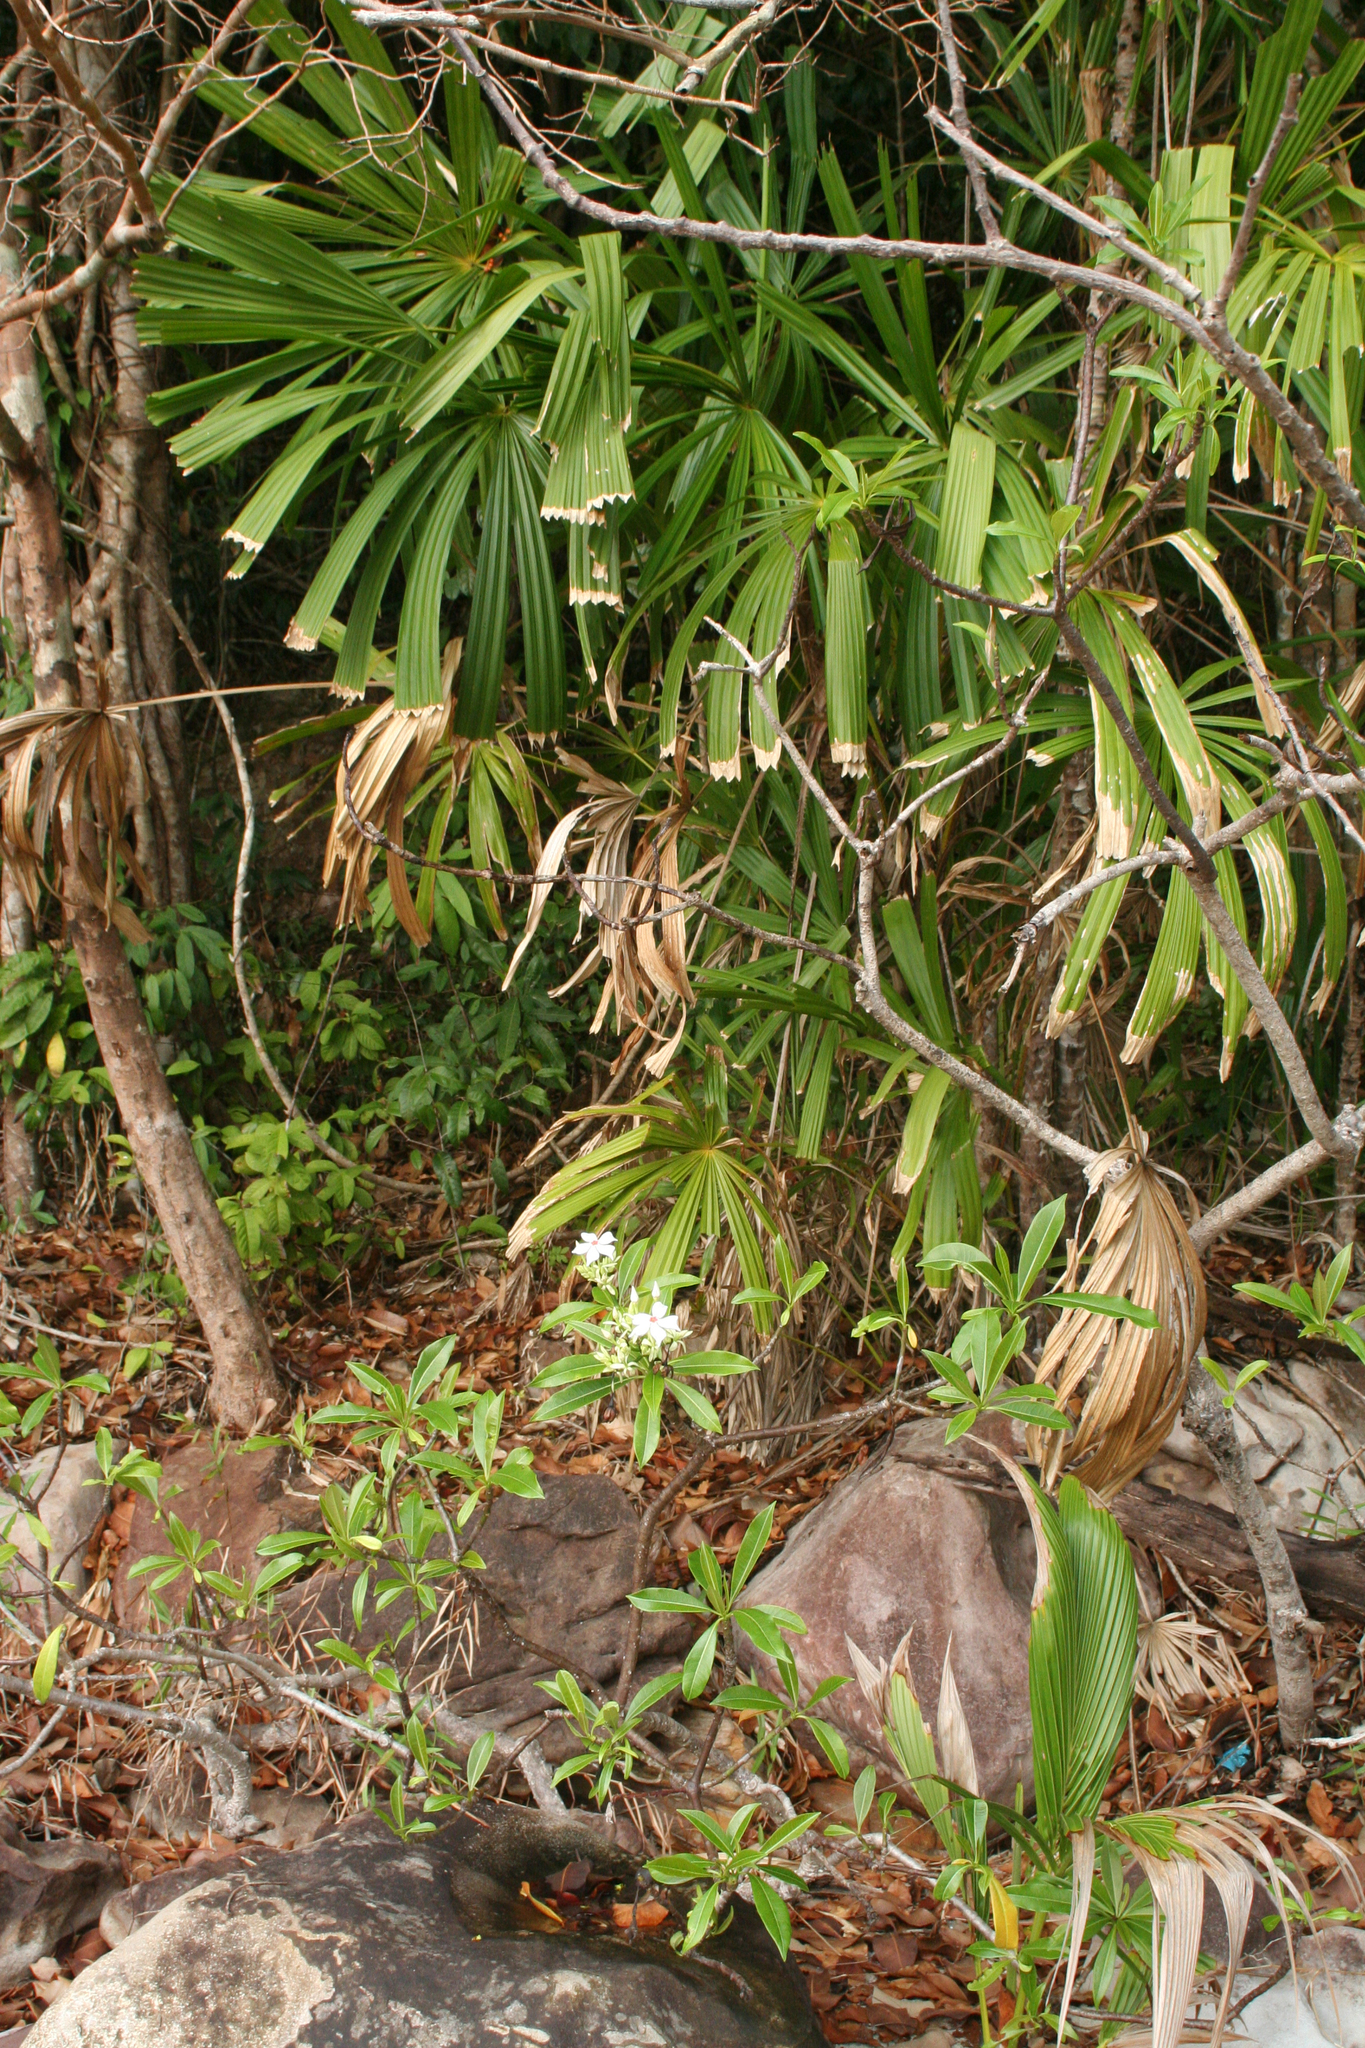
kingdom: Plantae
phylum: Tracheophyta
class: Liliopsida
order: Arecales
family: Arecaceae
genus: Licuala
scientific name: Licuala spinosa
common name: Mangrove fan palm
